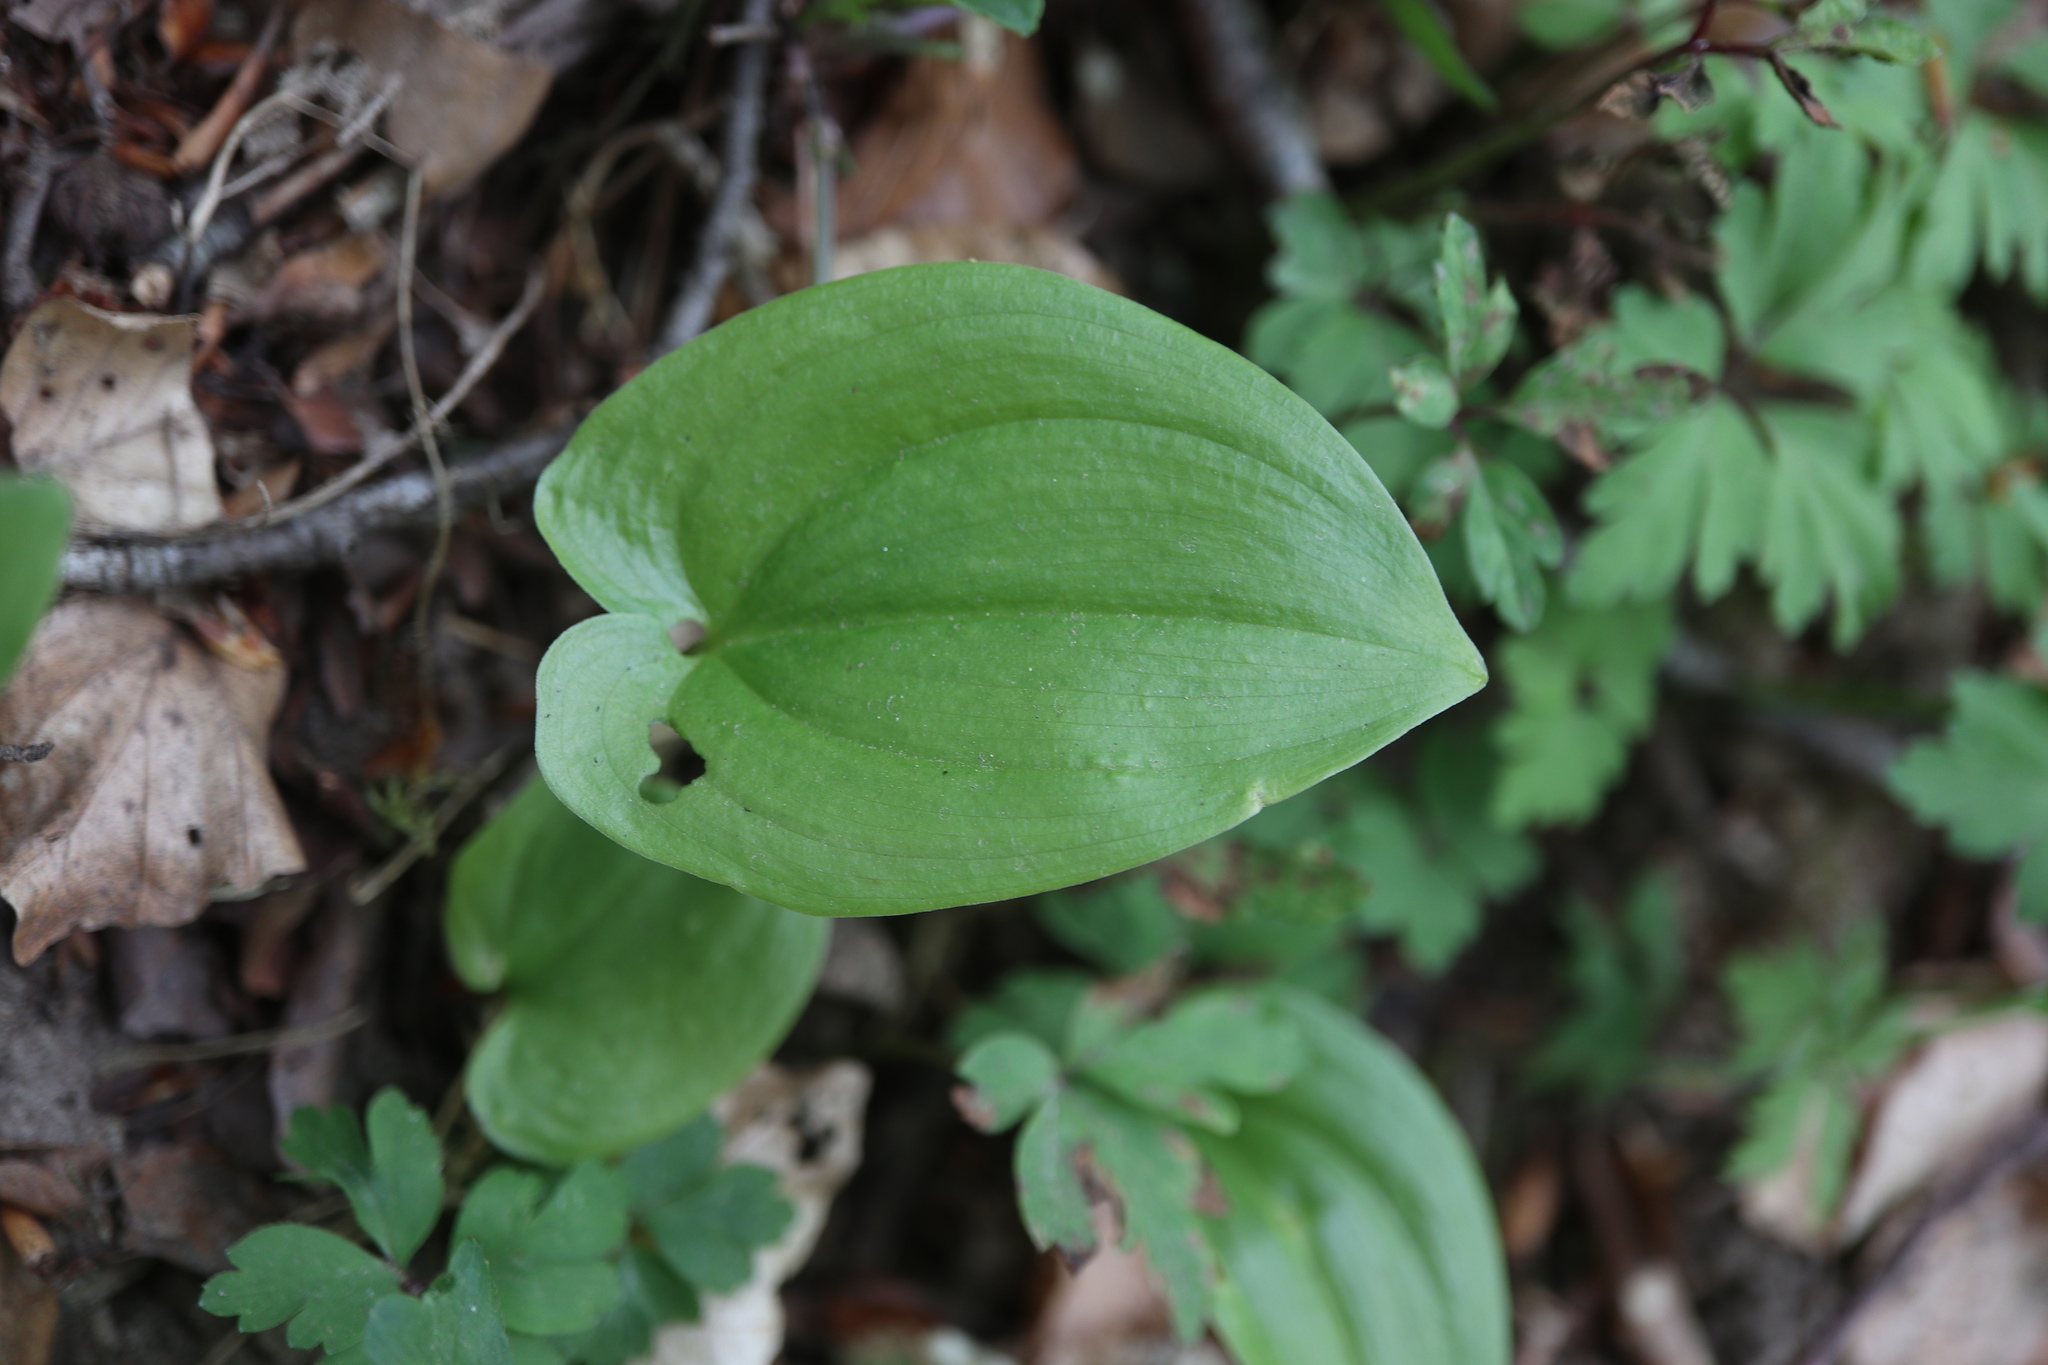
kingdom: Plantae
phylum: Tracheophyta
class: Liliopsida
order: Asparagales
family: Asparagaceae
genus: Maianthemum
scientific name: Maianthemum bifolium
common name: May lily
